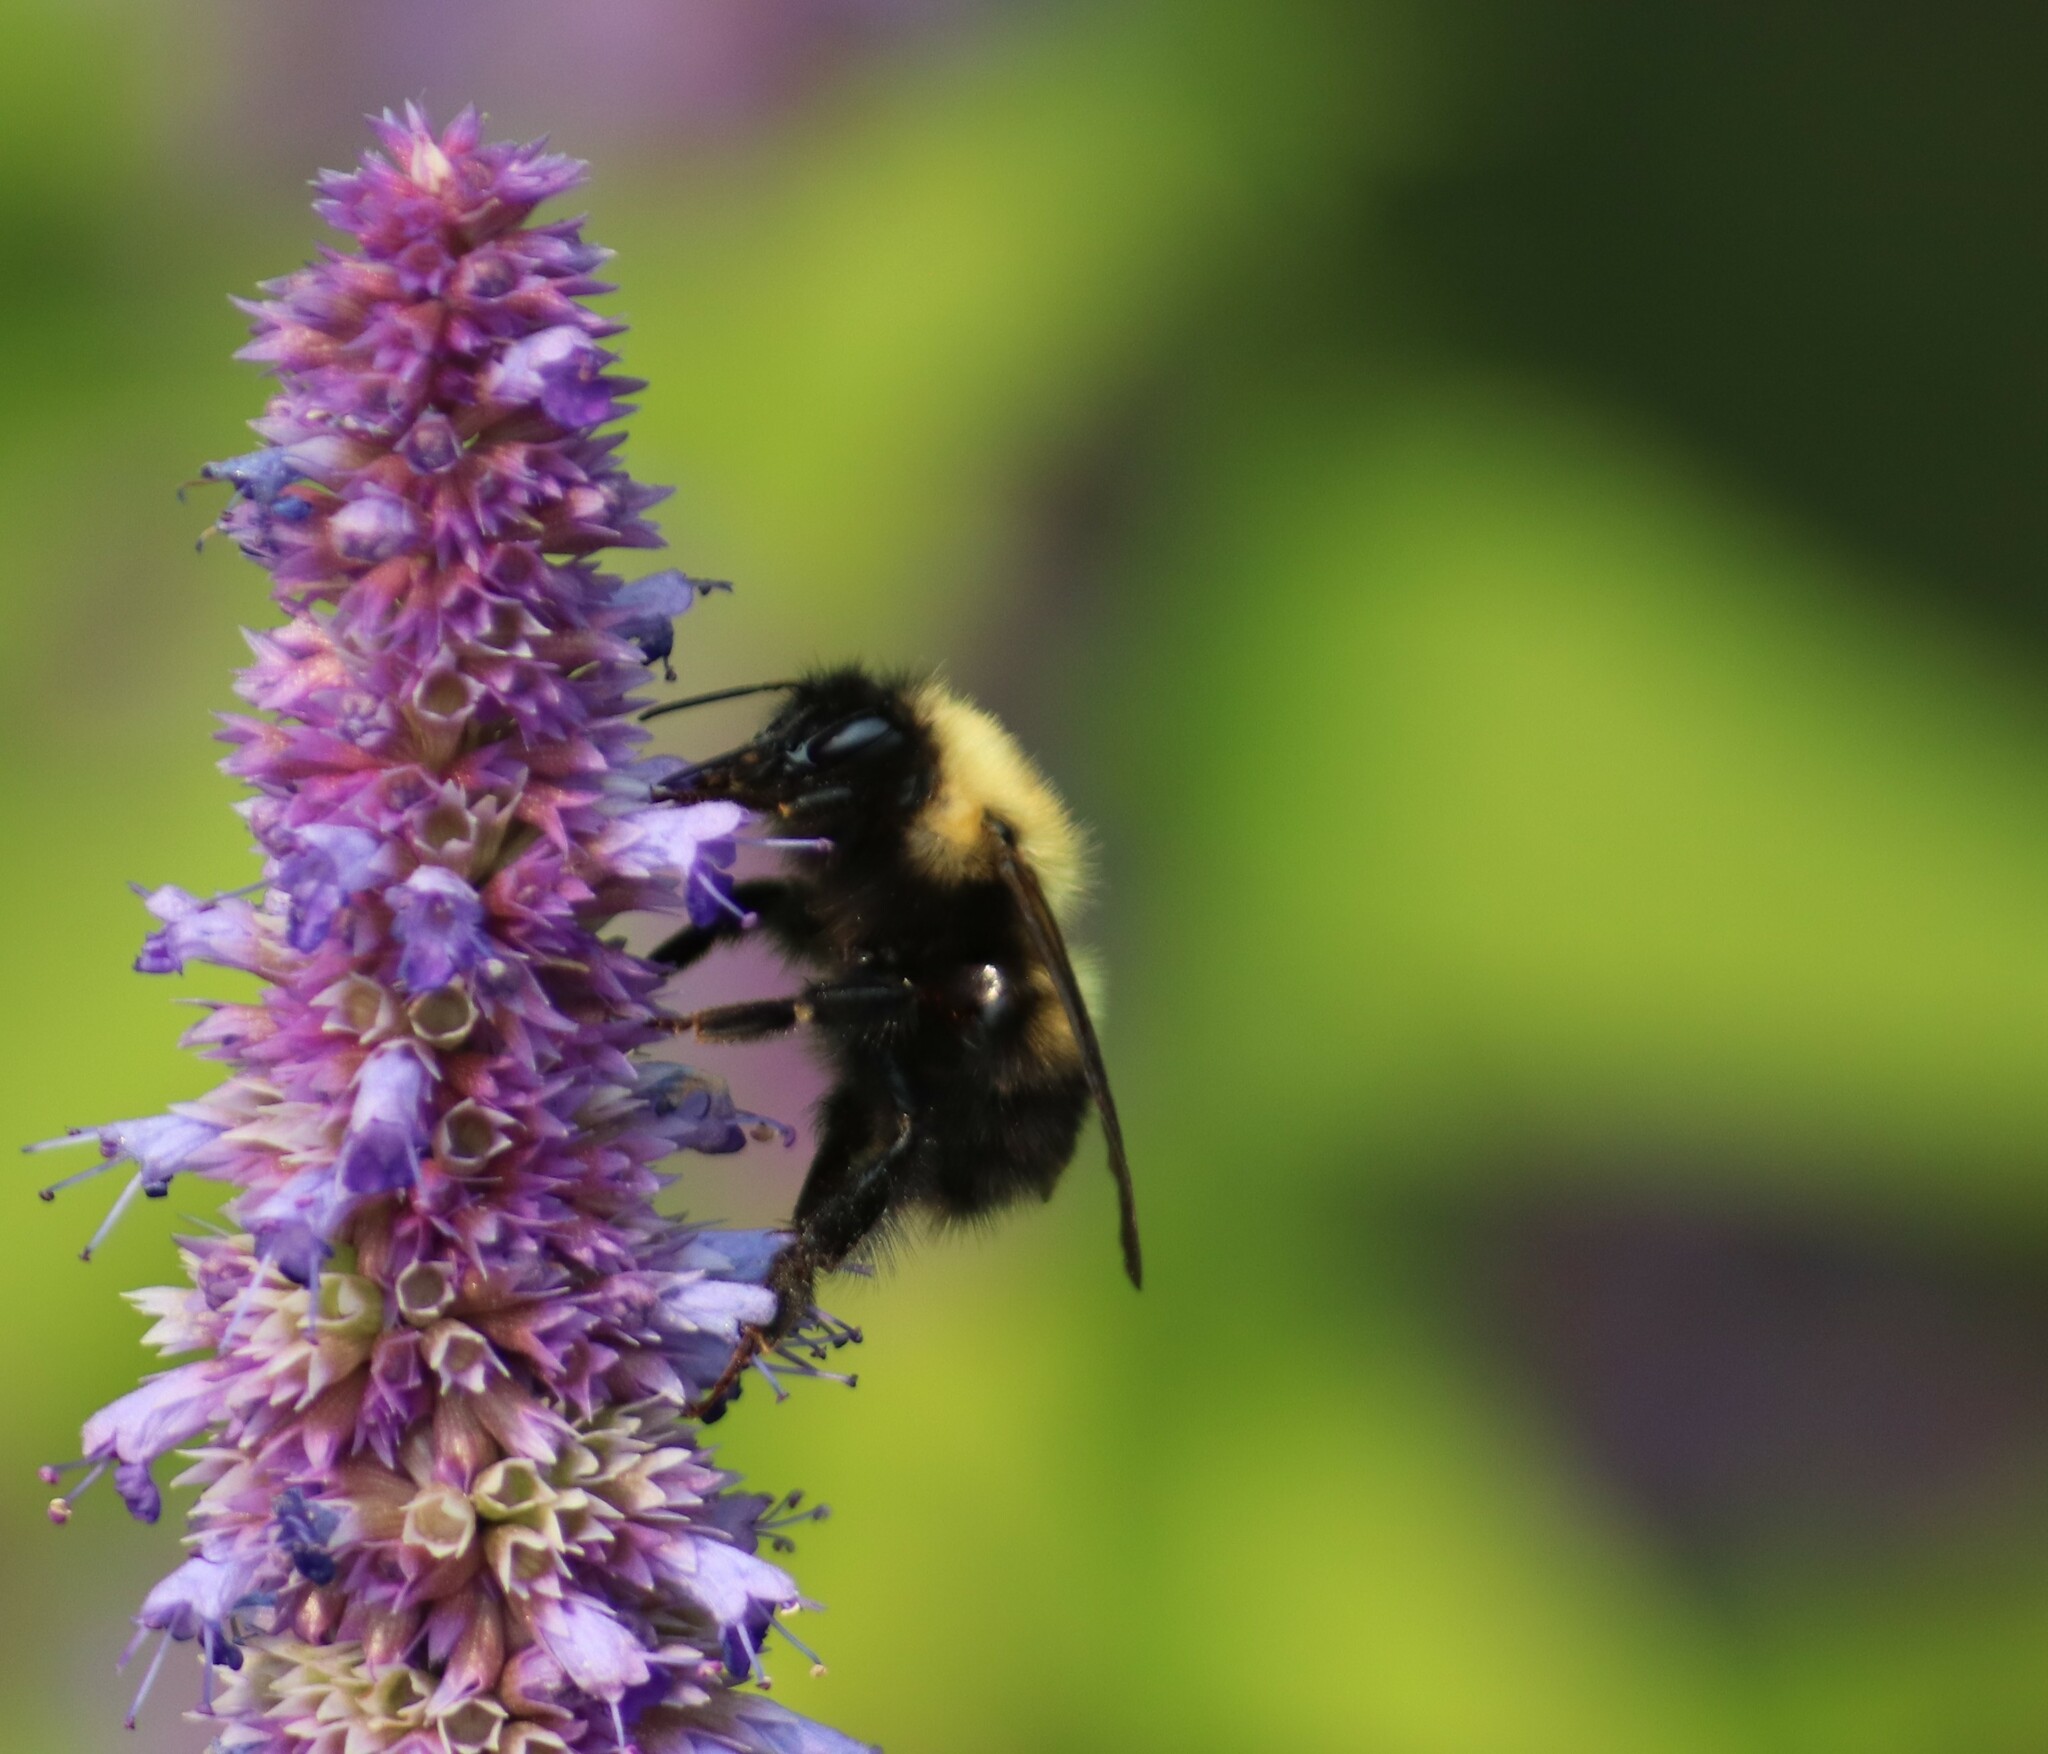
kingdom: Animalia
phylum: Arthropoda
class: Insecta
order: Hymenoptera
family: Apidae
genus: Bombus
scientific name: Bombus perplexus
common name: Confusing bumble bee
